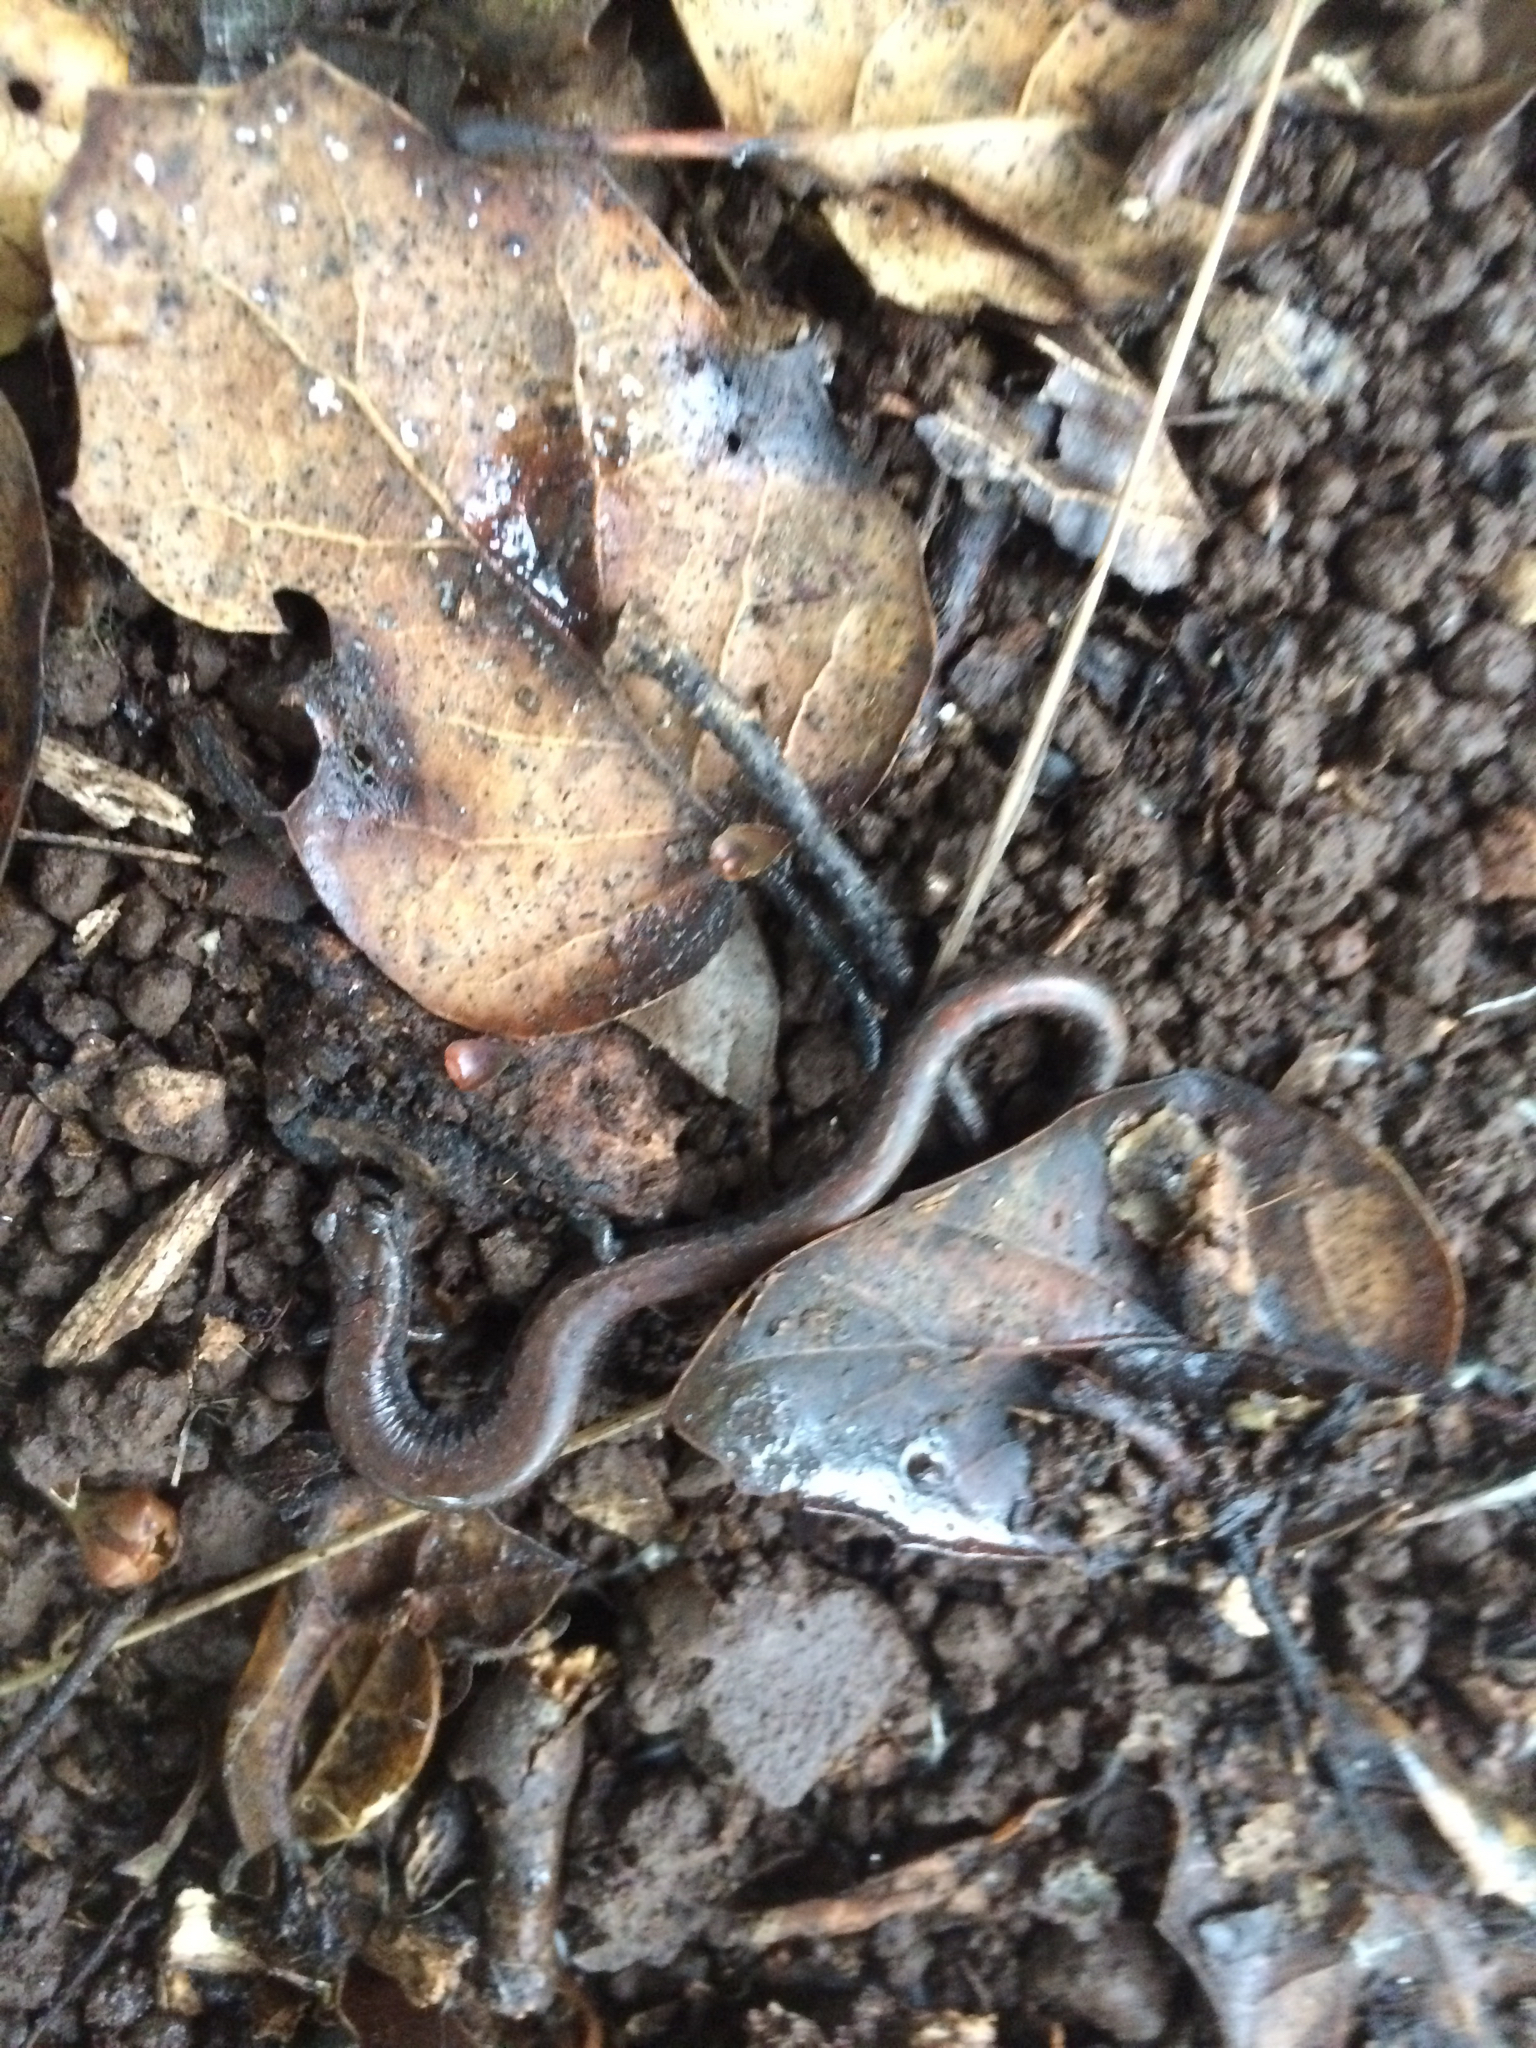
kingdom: Animalia
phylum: Chordata
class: Amphibia
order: Caudata
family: Plethodontidae
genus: Batrachoseps
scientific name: Batrachoseps attenuatus
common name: California slender salamander
